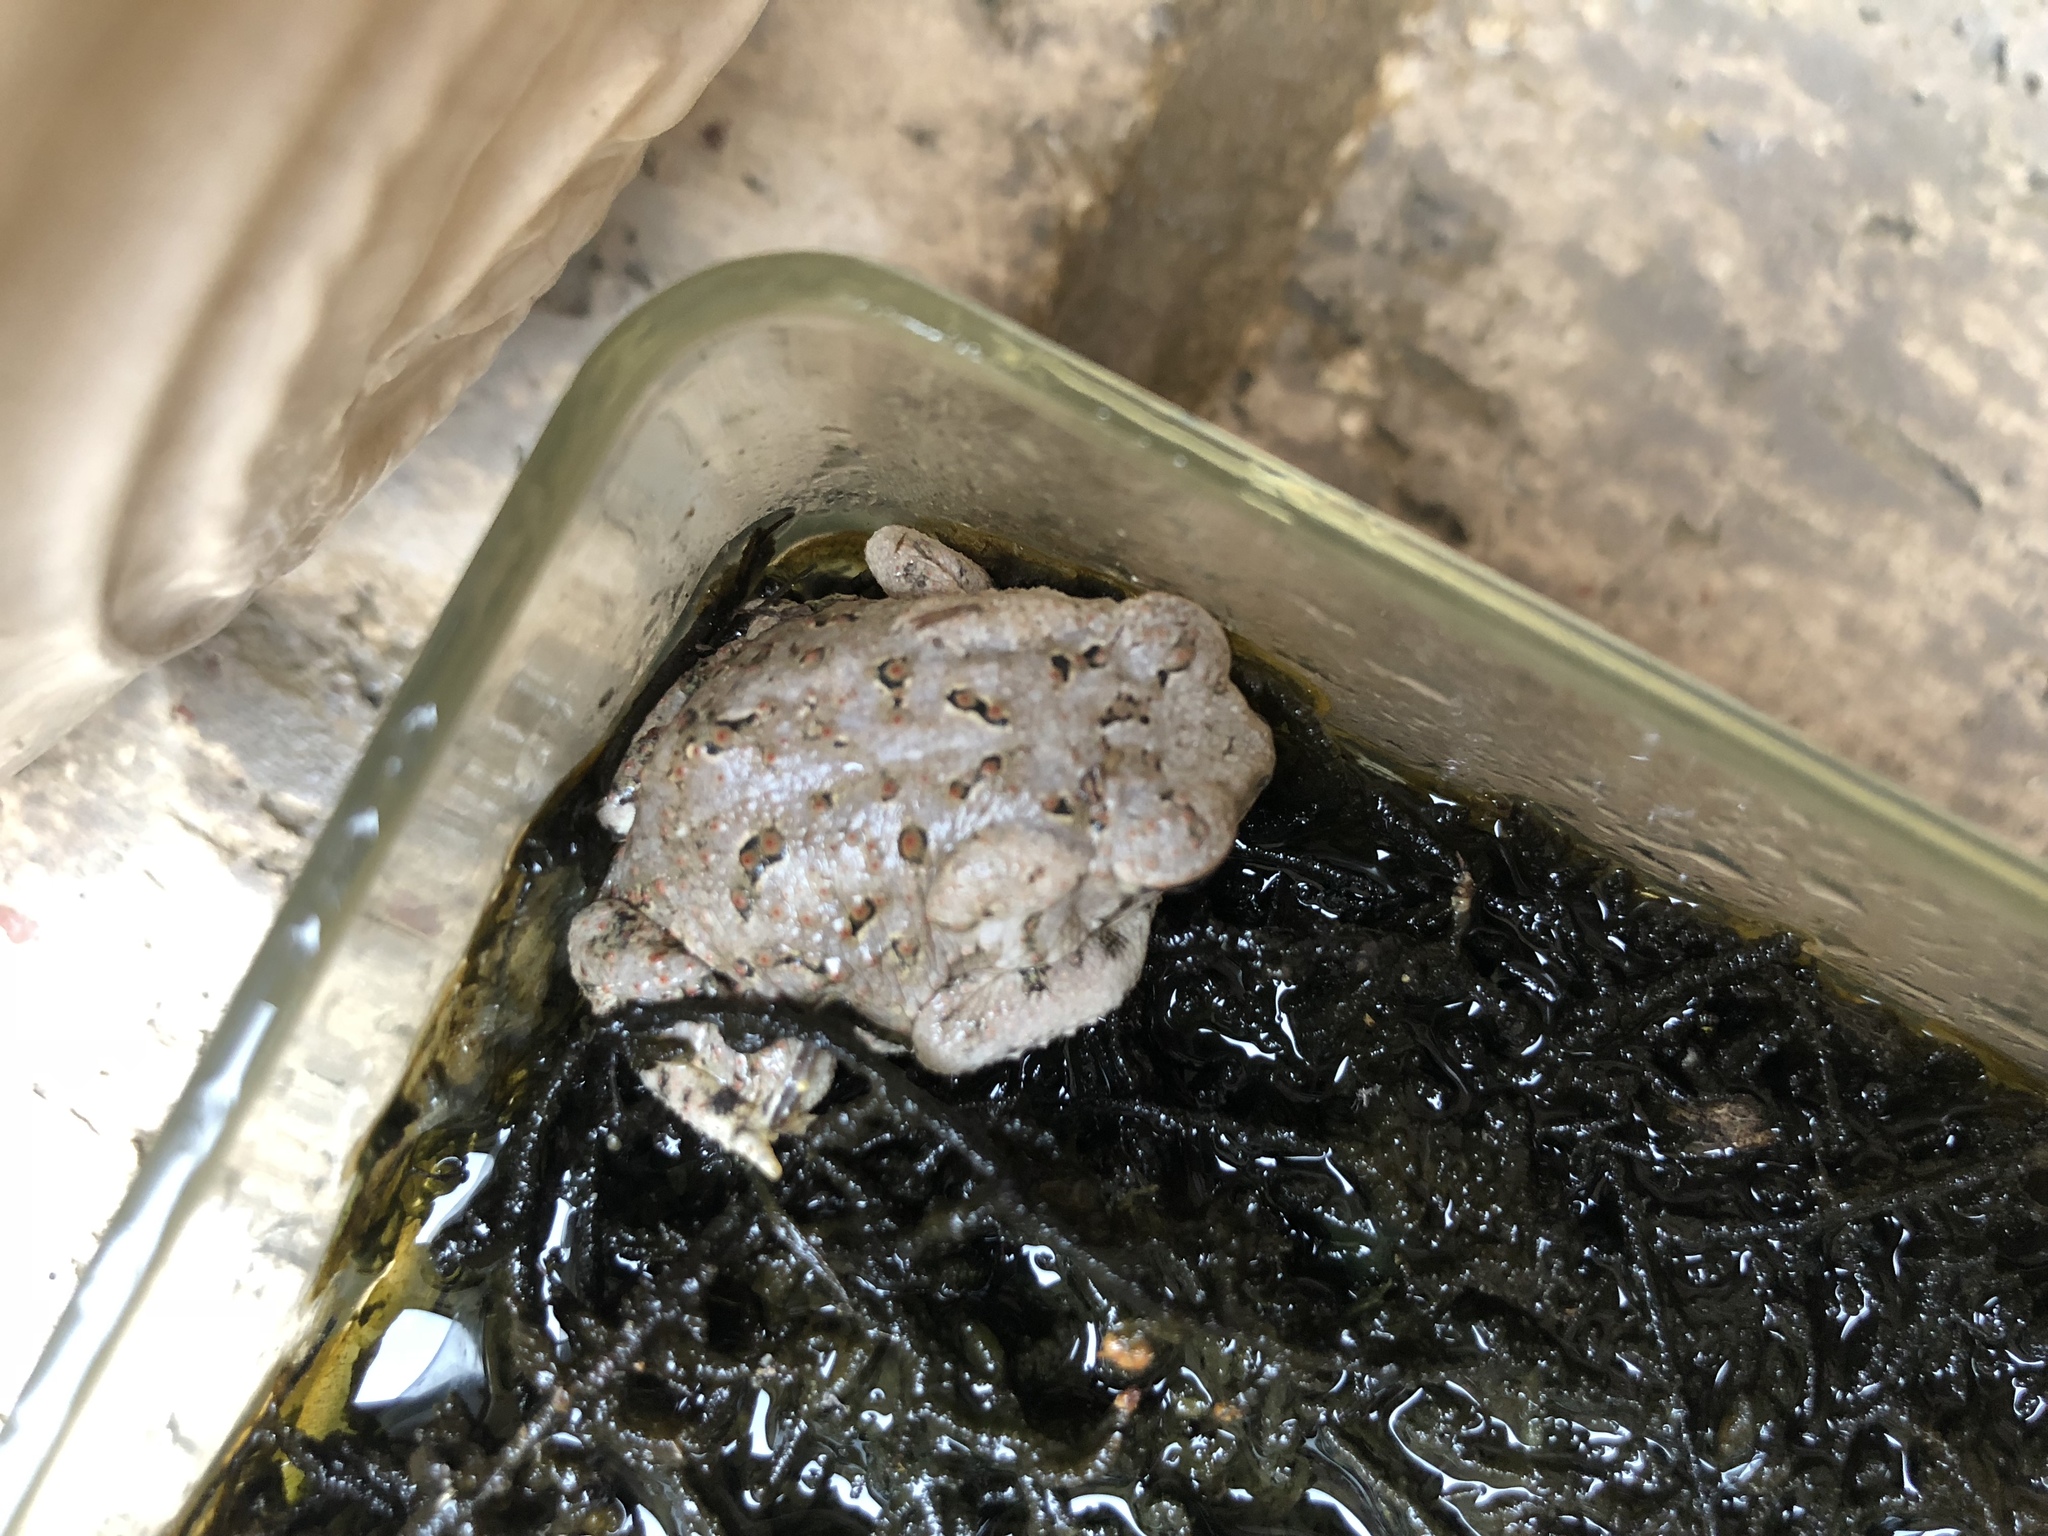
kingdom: Animalia
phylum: Chordata
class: Amphibia
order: Anura
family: Bufonidae
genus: Anaxyrus
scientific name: Anaxyrus fowleri
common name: Fowler's toad
